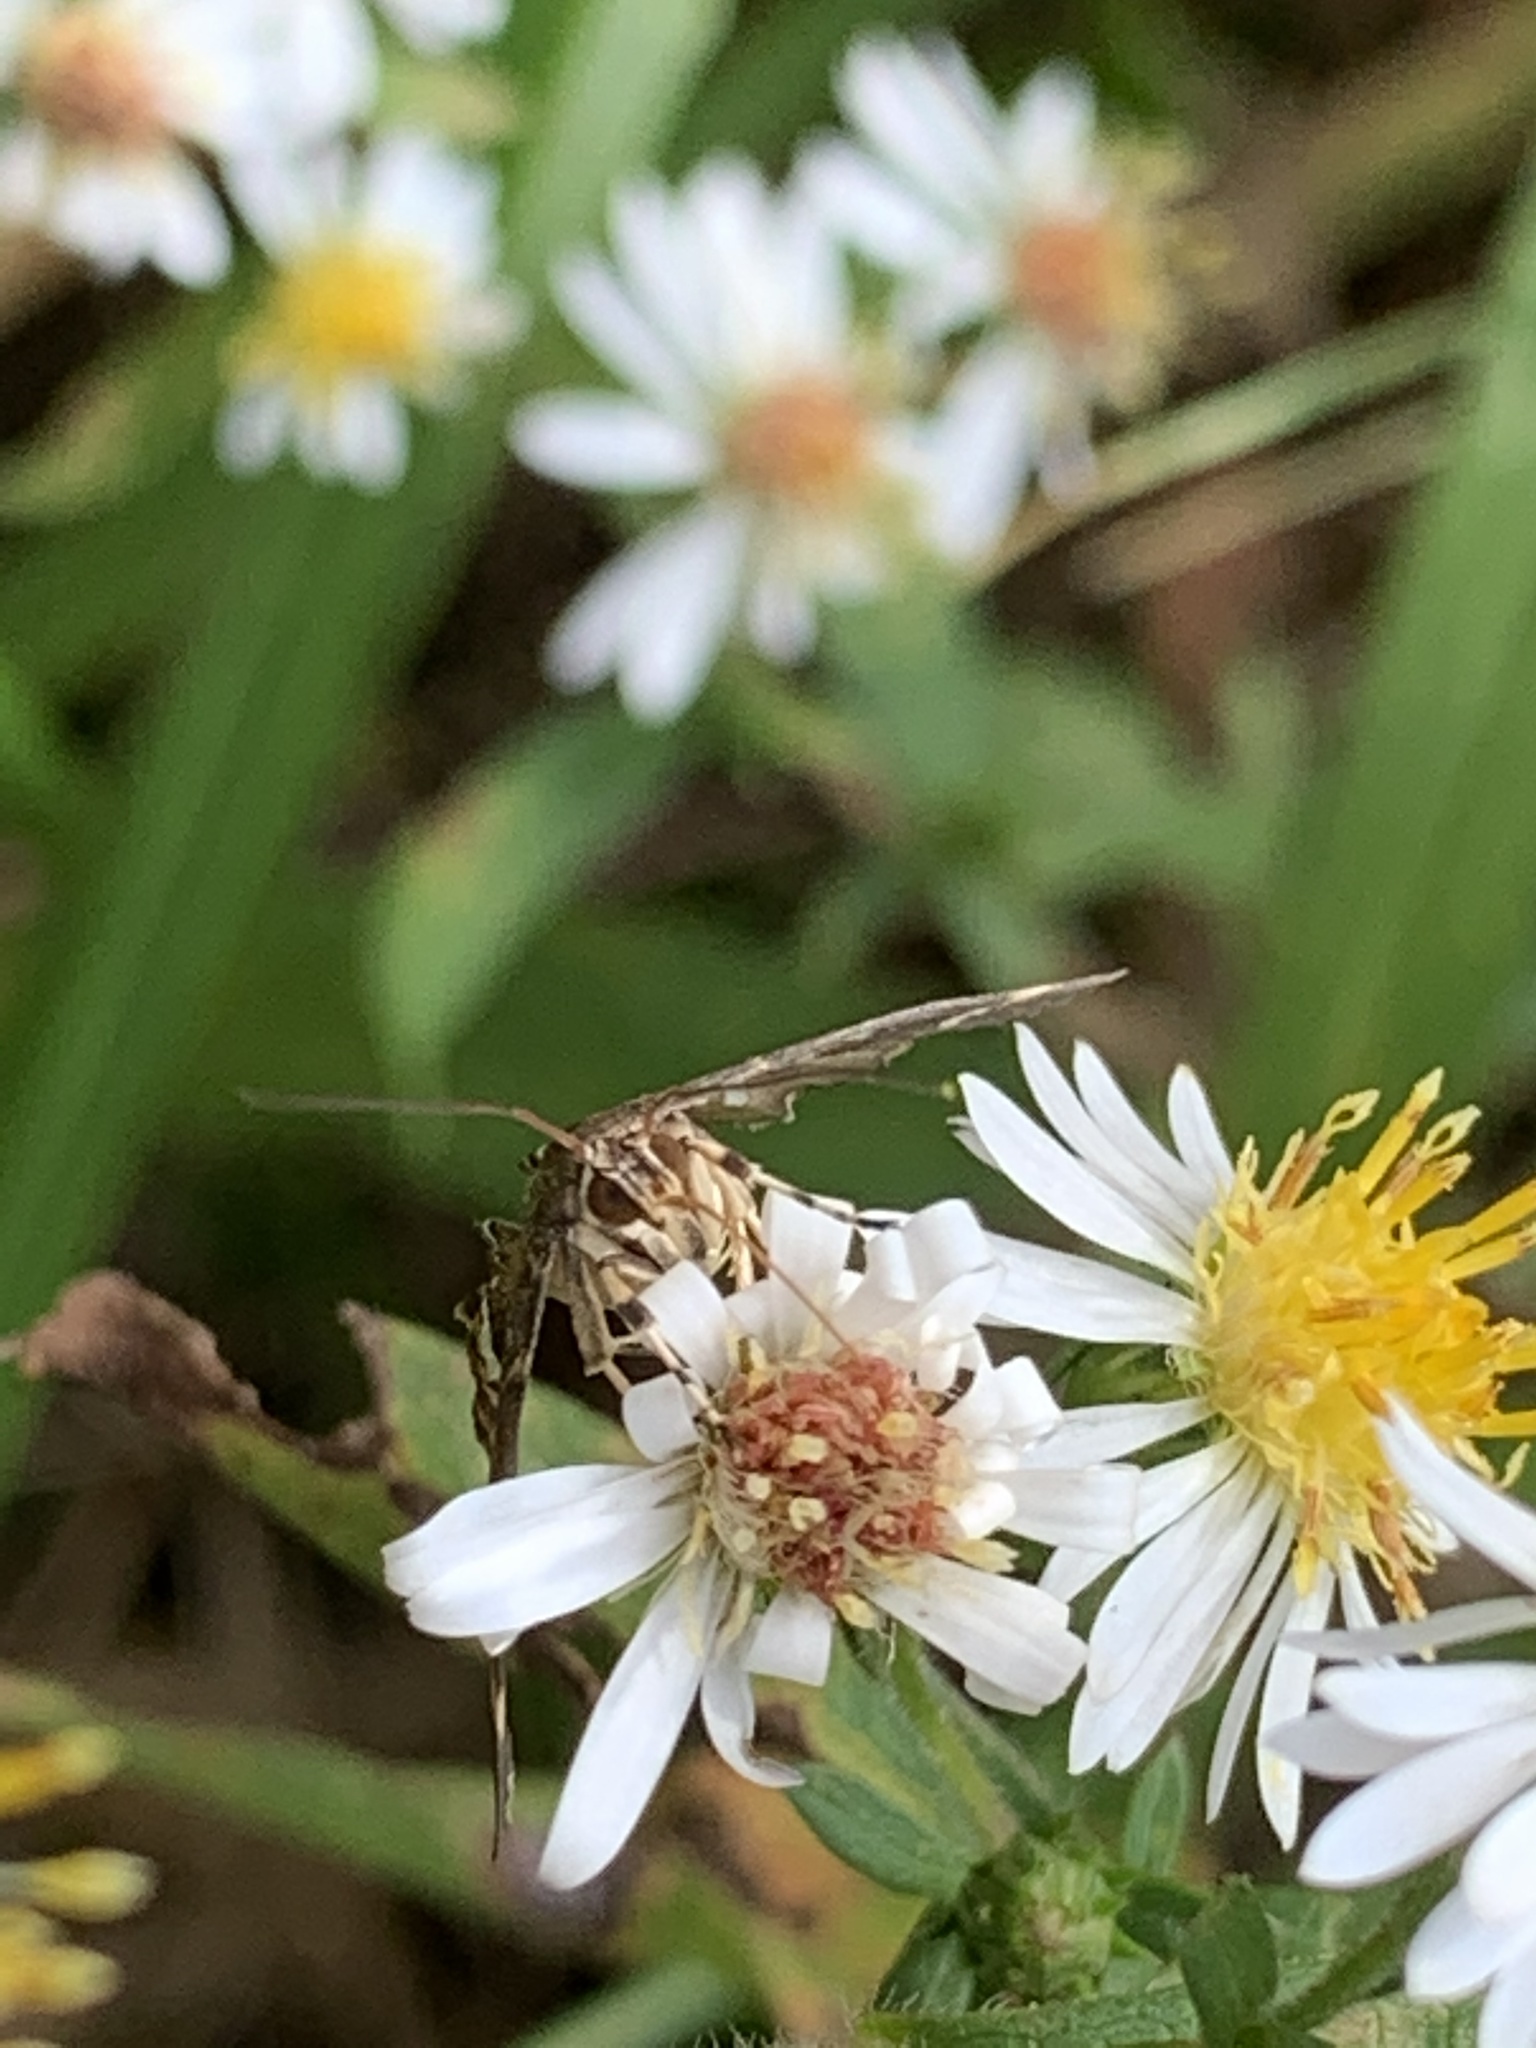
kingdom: Animalia
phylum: Arthropoda
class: Insecta
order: Lepidoptera
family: Crambidae
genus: Hymenia
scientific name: Hymenia perspectalis
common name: Spotted beet webworm
